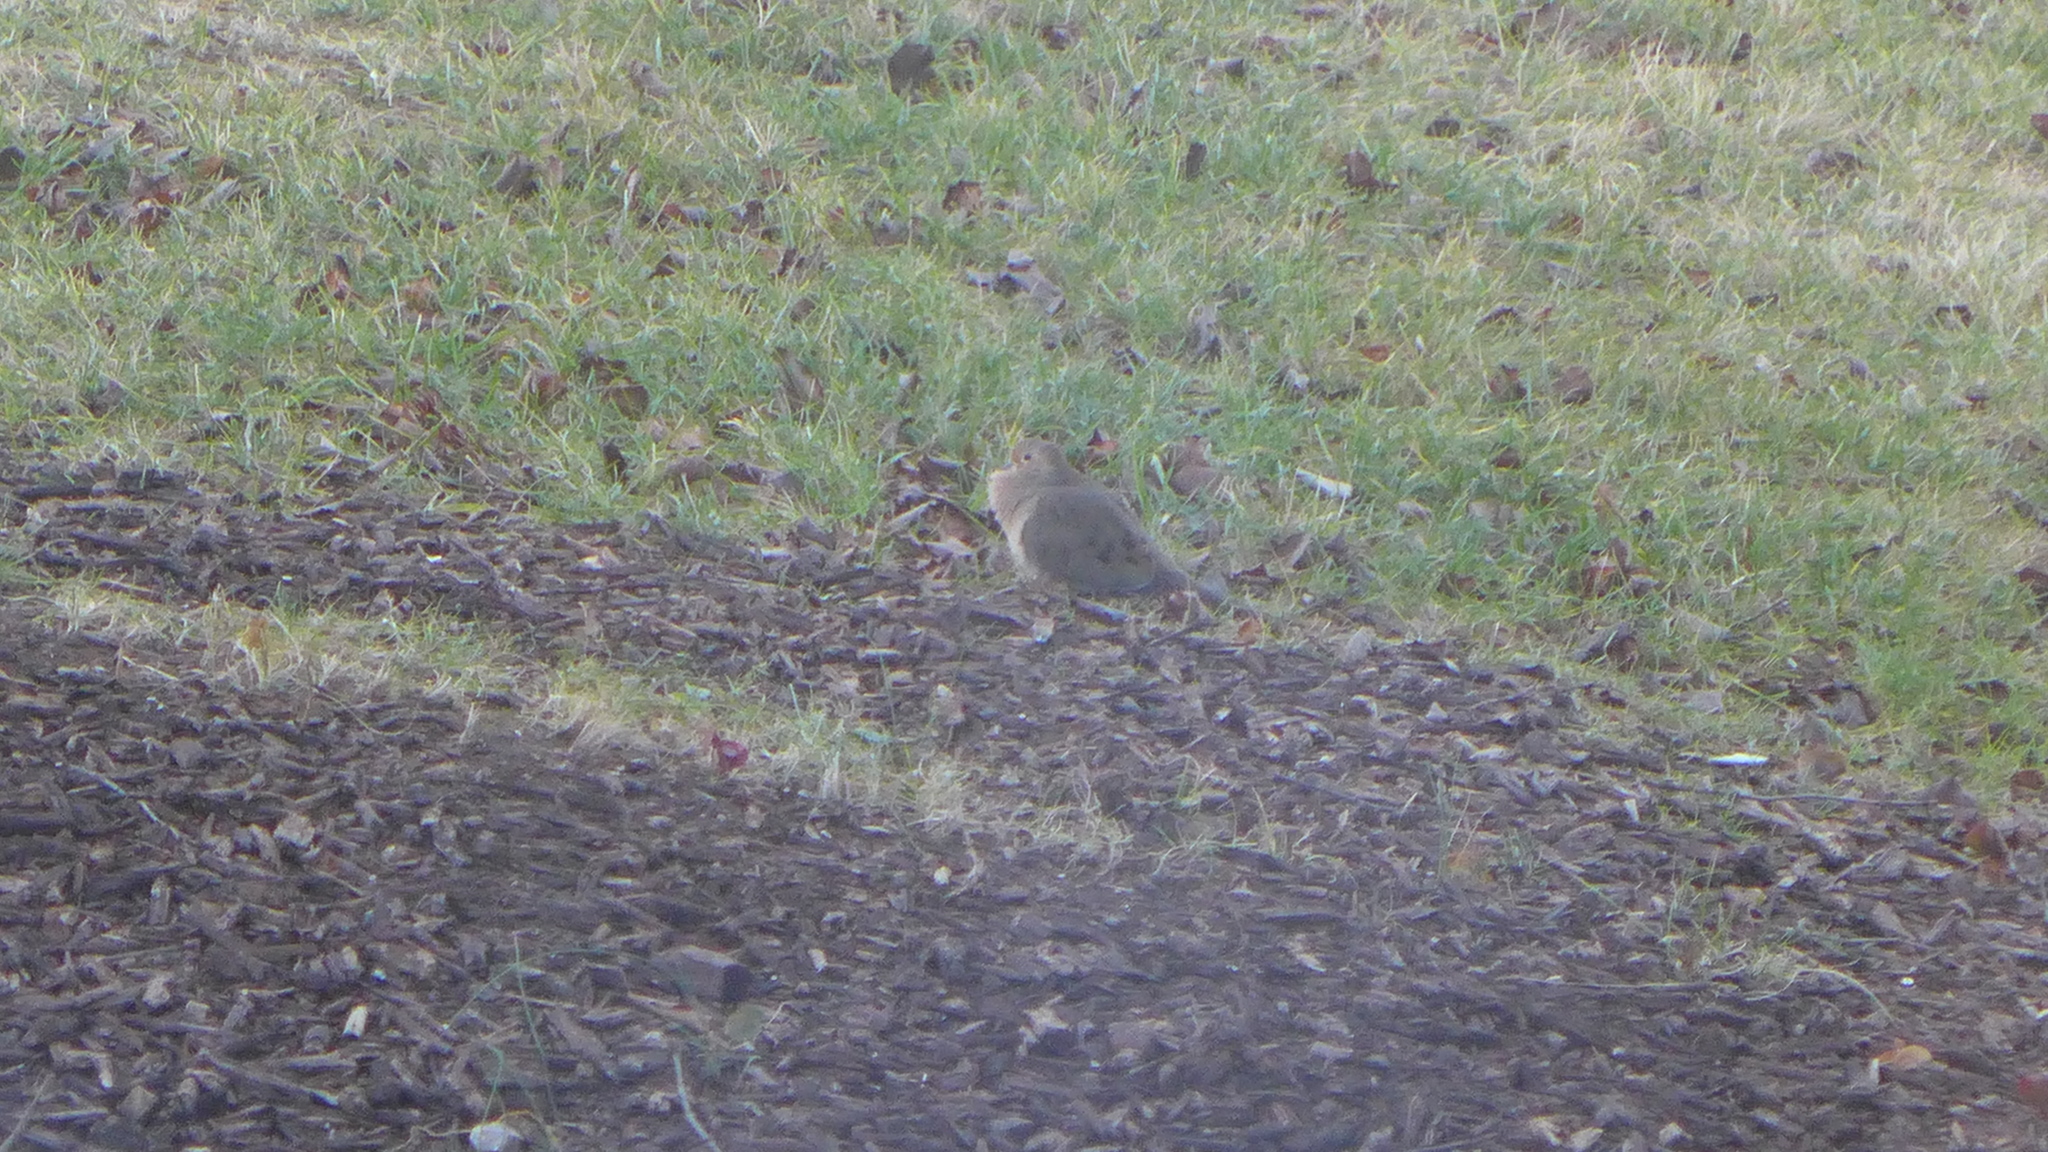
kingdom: Animalia
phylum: Chordata
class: Aves
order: Columbiformes
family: Columbidae
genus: Zenaida
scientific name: Zenaida macroura
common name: Mourning dove
